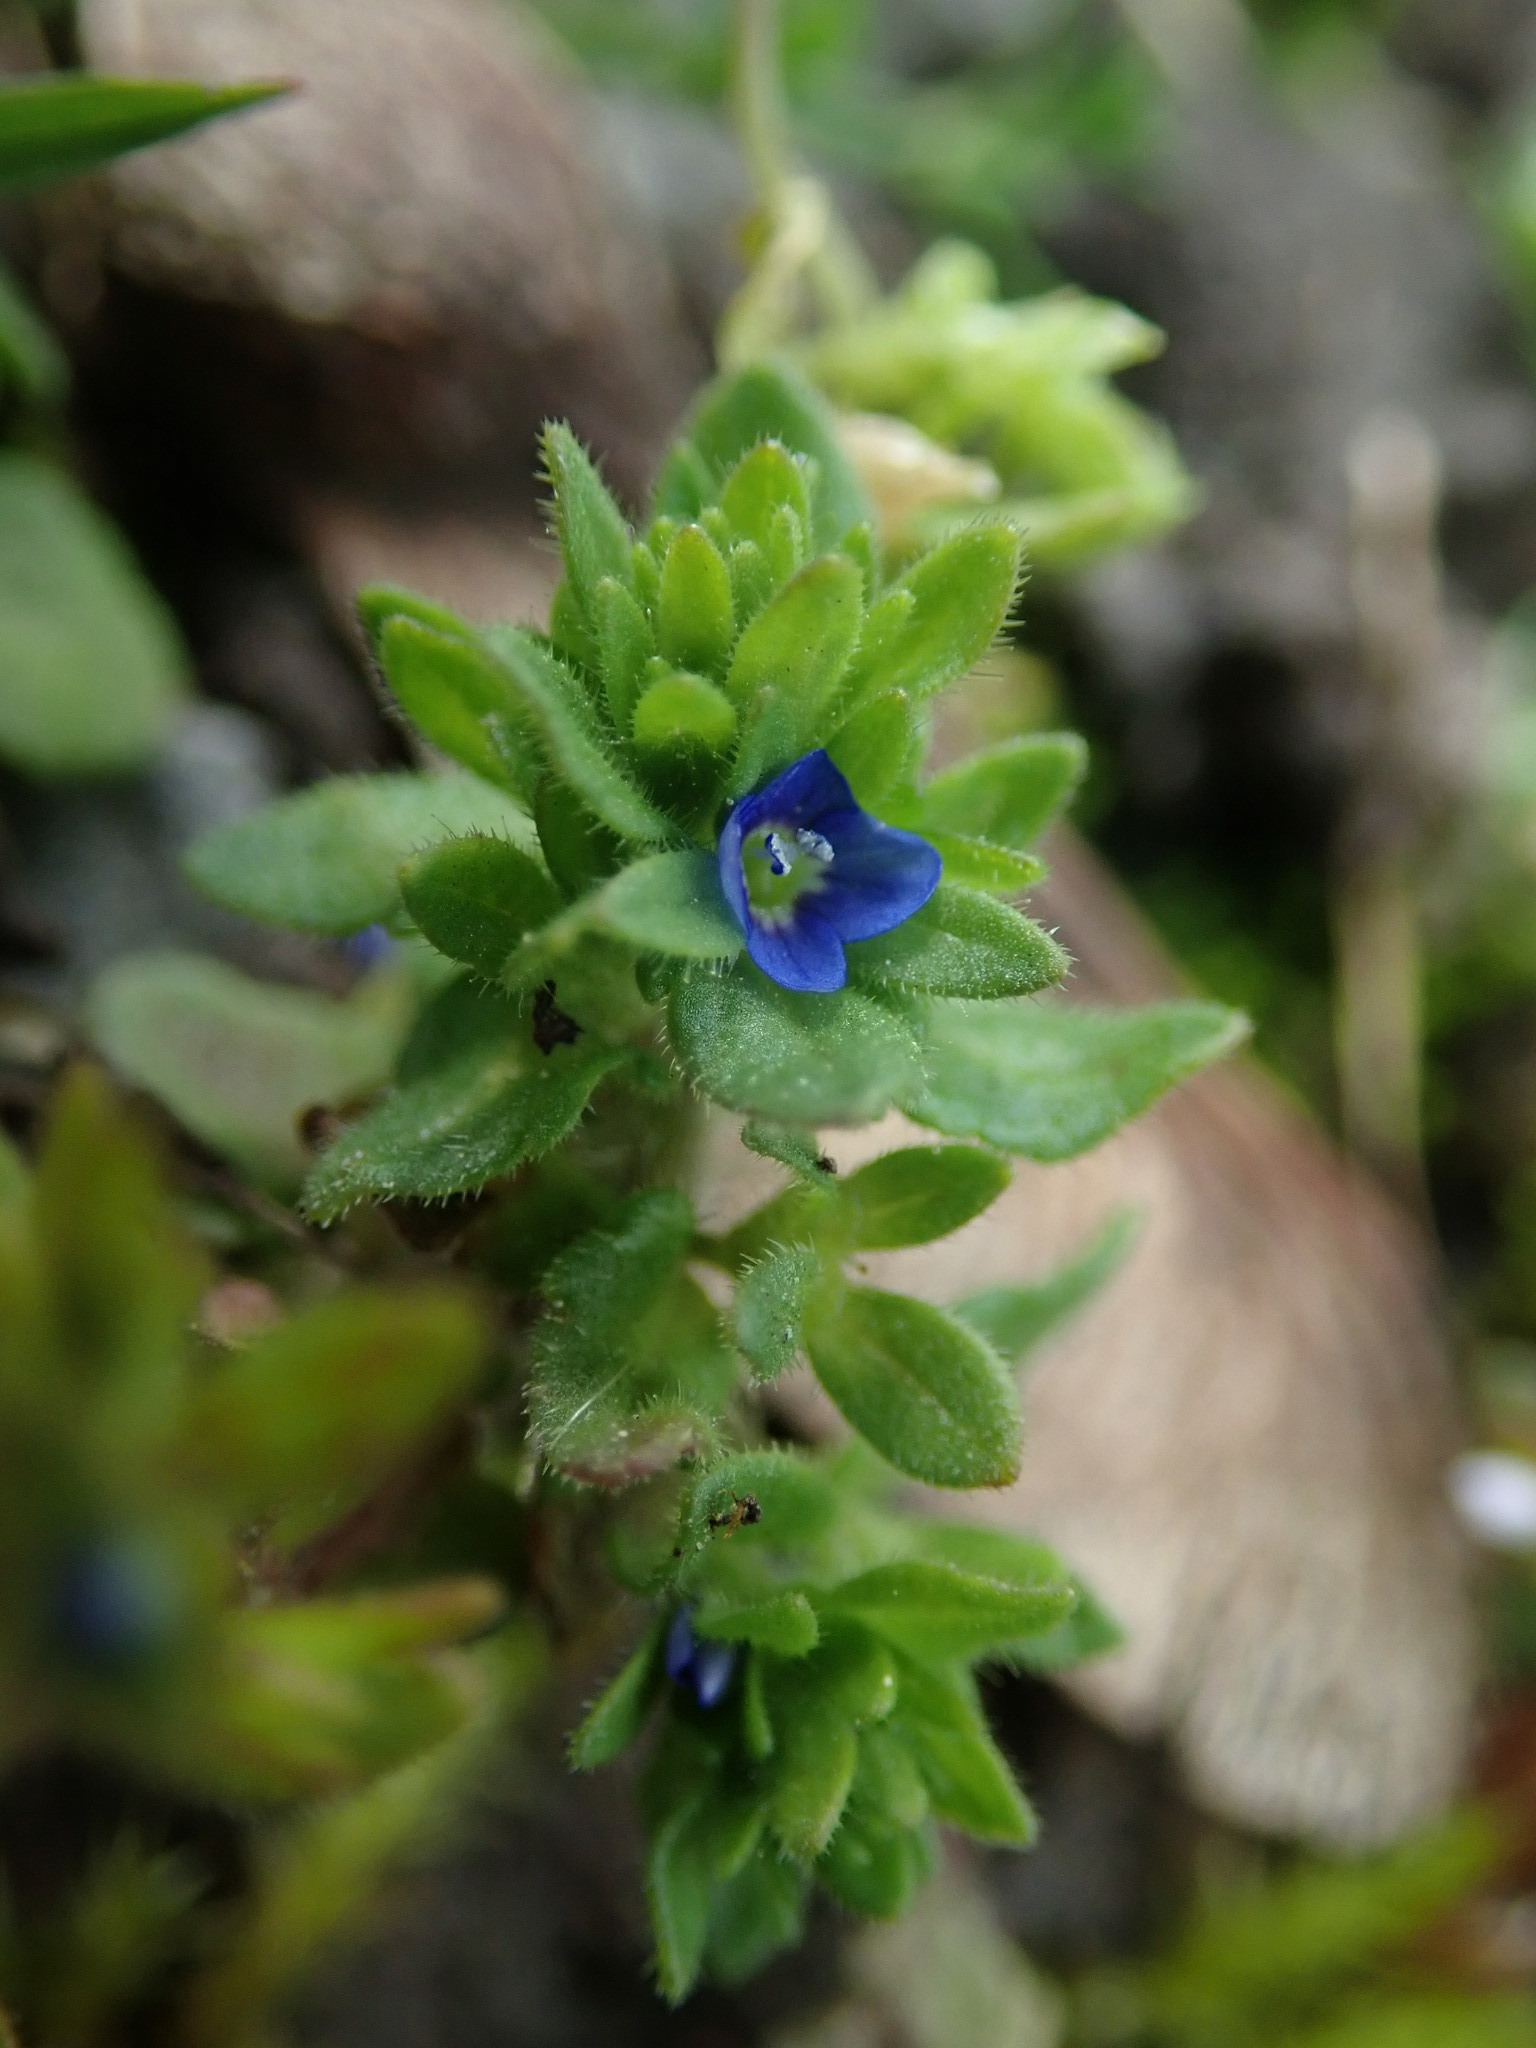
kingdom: Plantae
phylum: Tracheophyta
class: Magnoliopsida
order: Lamiales
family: Plantaginaceae
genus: Veronica
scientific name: Veronica arvensis
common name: Corn speedwell
